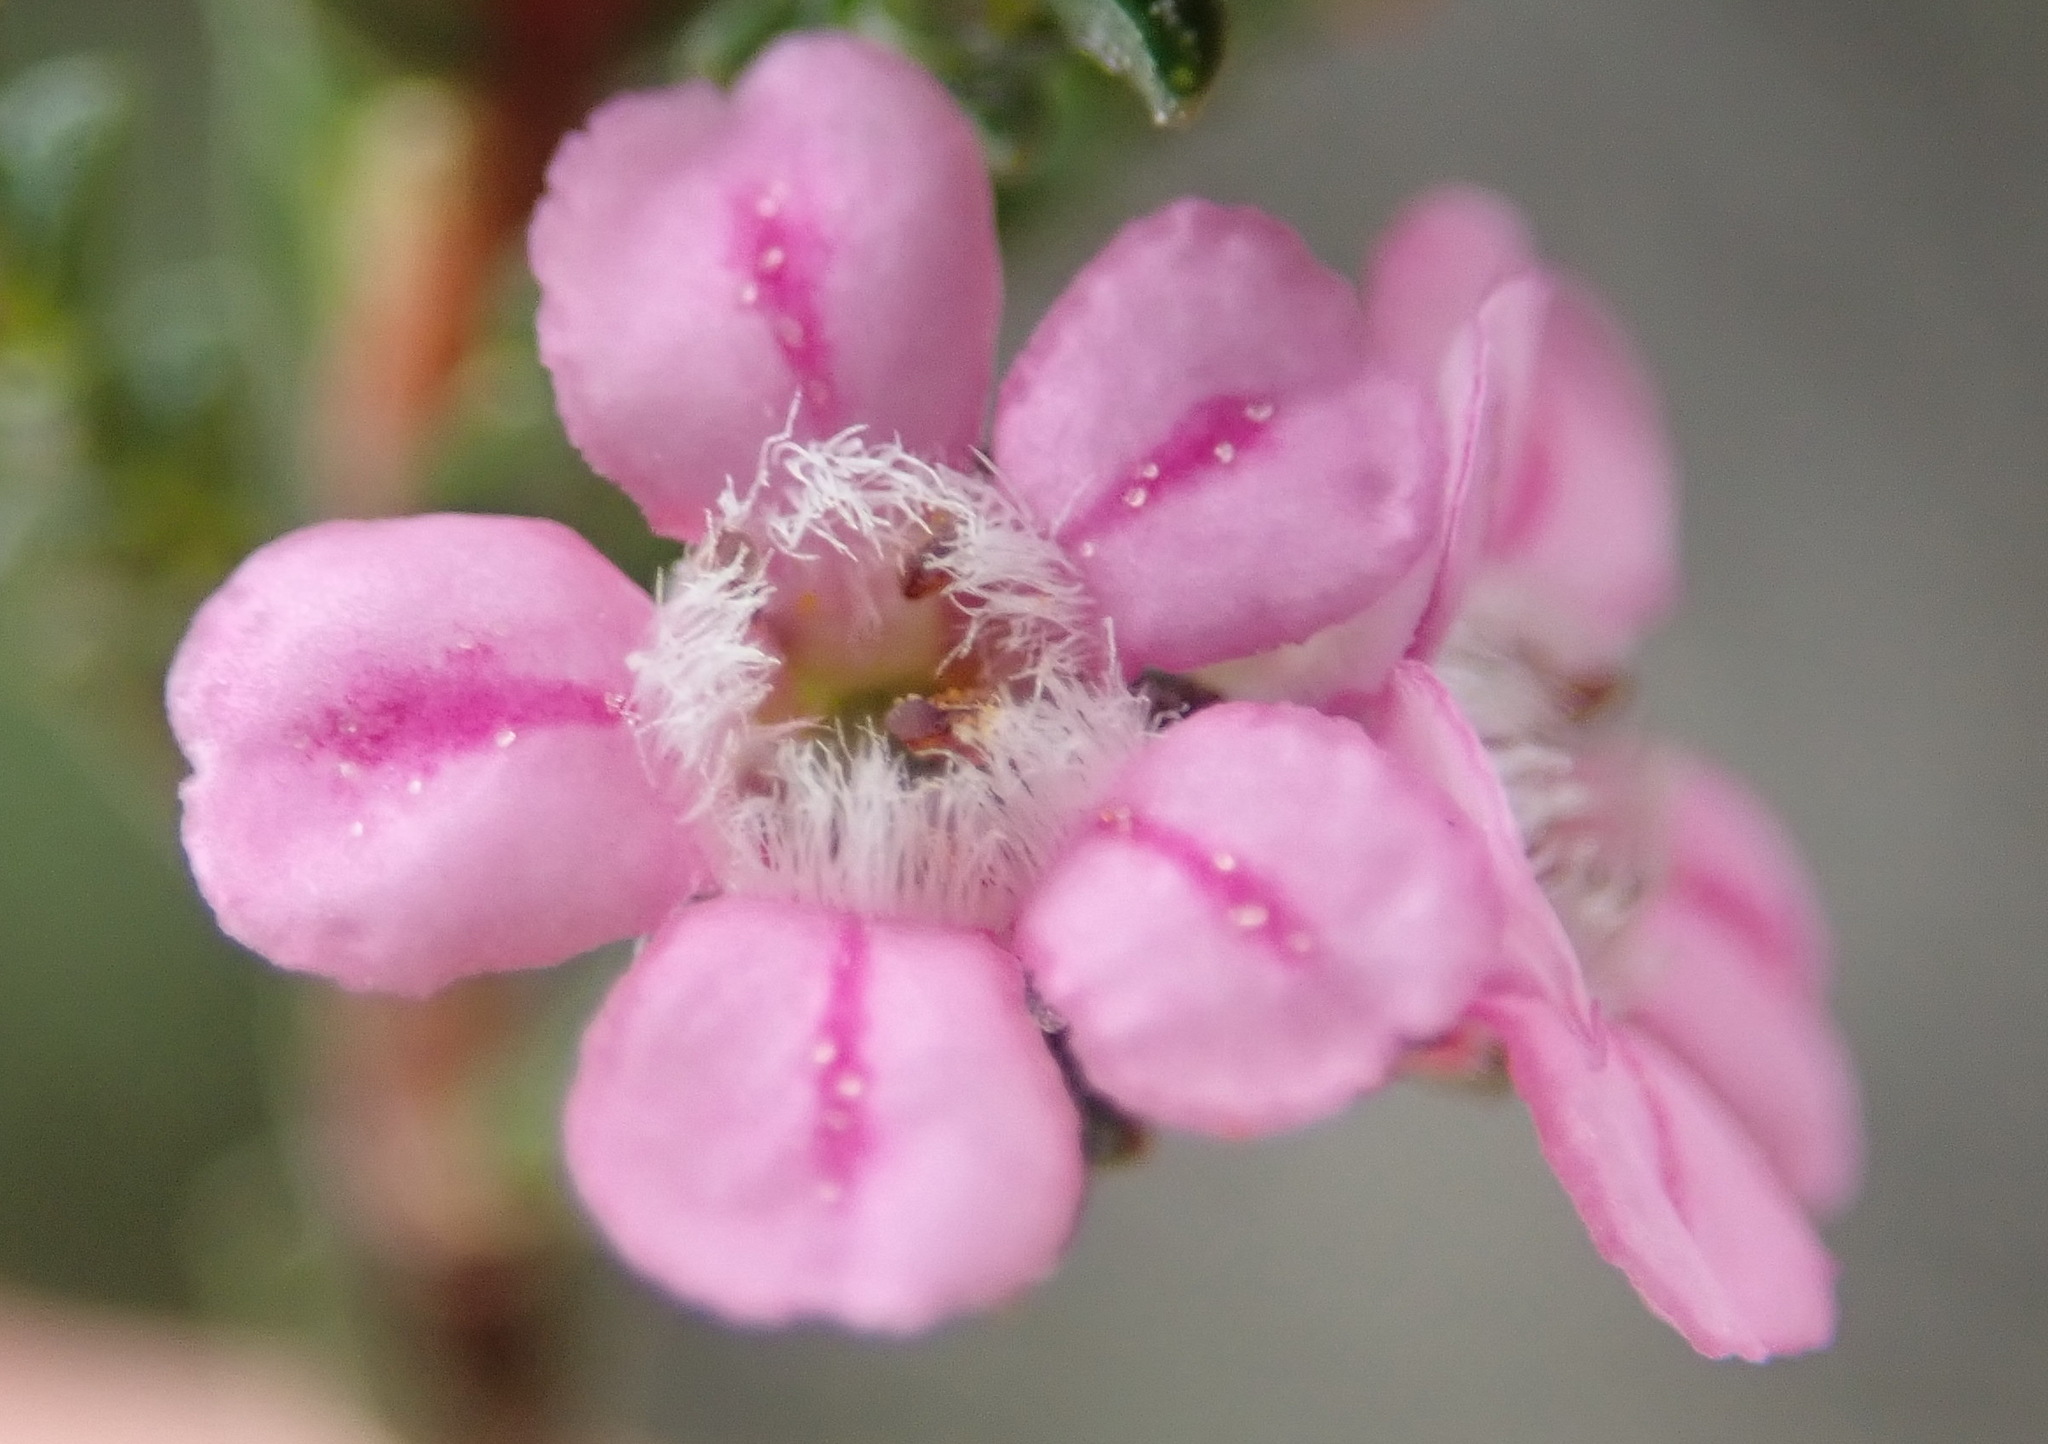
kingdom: Plantae
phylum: Tracheophyta
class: Magnoliopsida
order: Sapindales
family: Rutaceae
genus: Euchaetis
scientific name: Euchaetis albertiniana
